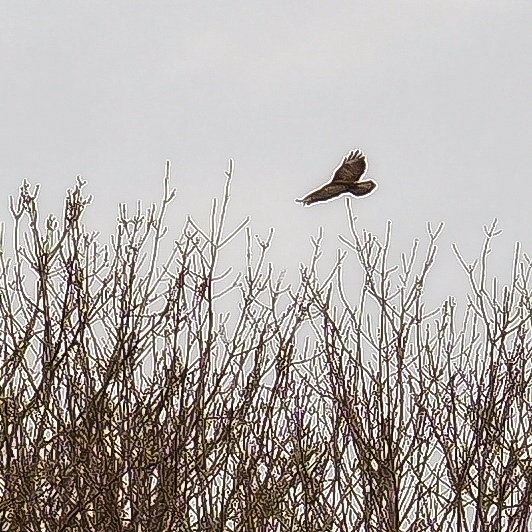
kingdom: Animalia
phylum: Chordata
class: Aves
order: Accipitriformes
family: Accipitridae
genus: Buteo
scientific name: Buteo buteo
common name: Common buzzard
